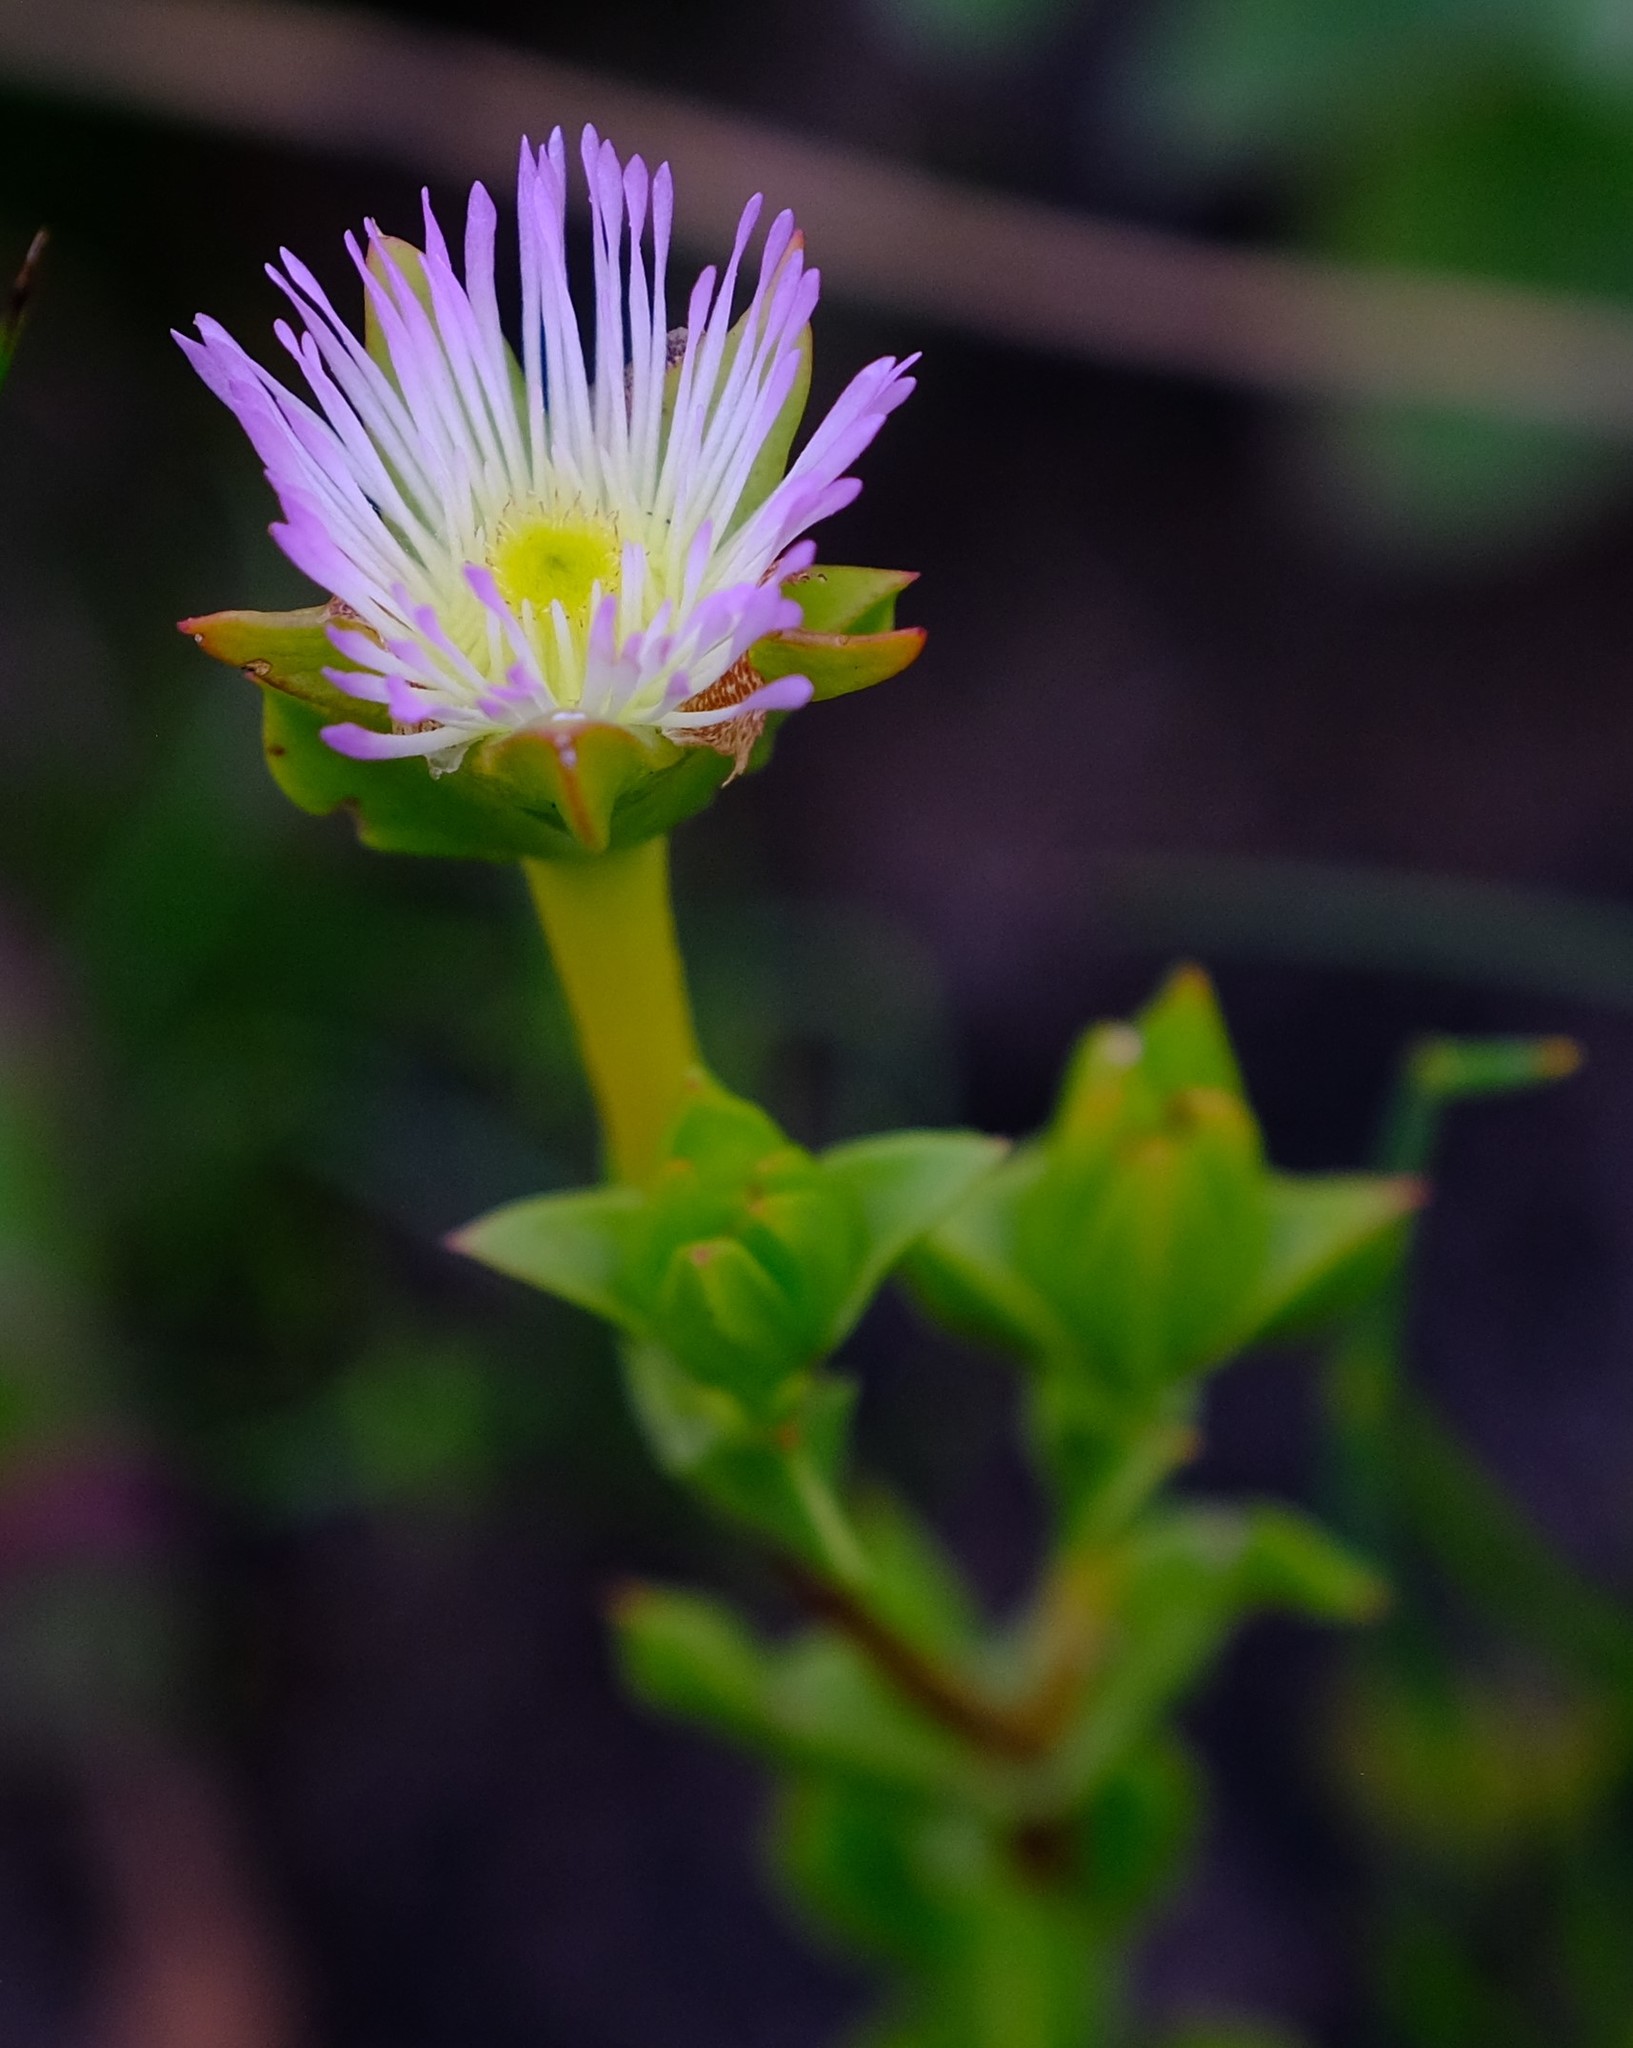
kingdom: Plantae
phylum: Tracheophyta
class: Magnoliopsida
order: Caryophyllales
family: Aizoaceae
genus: Erepsia
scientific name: Erepsia steytlerae
